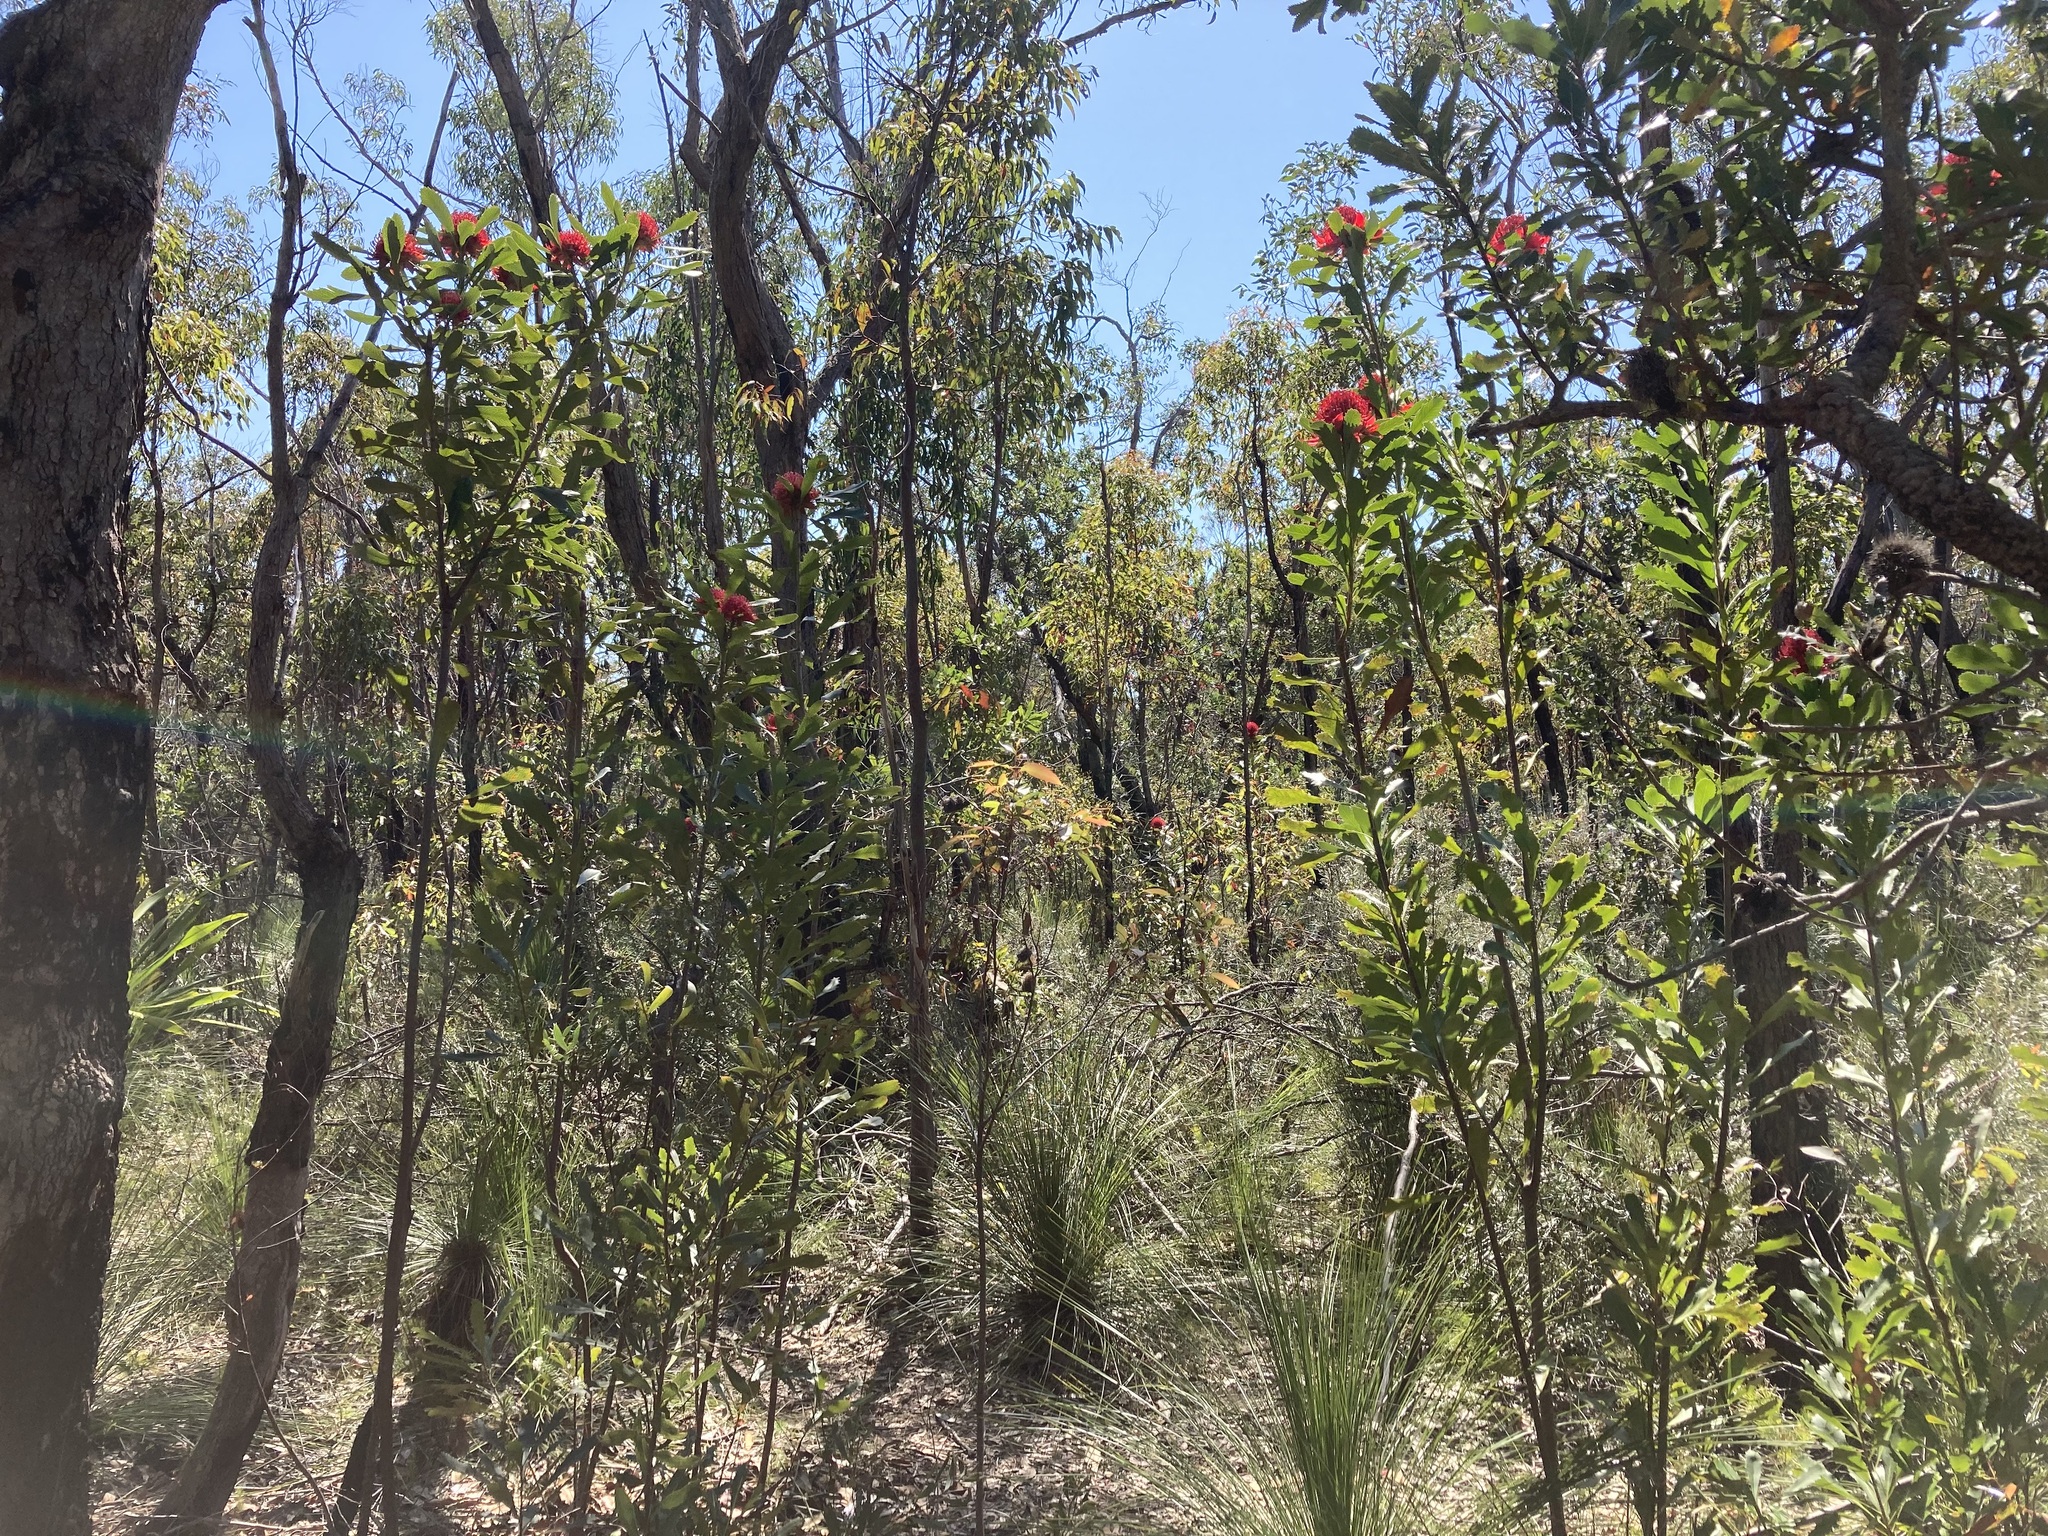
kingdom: Plantae
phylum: Tracheophyta
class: Magnoliopsida
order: Proteales
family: Proteaceae
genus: Telopea
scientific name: Telopea speciosissima
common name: New south wales waratah
